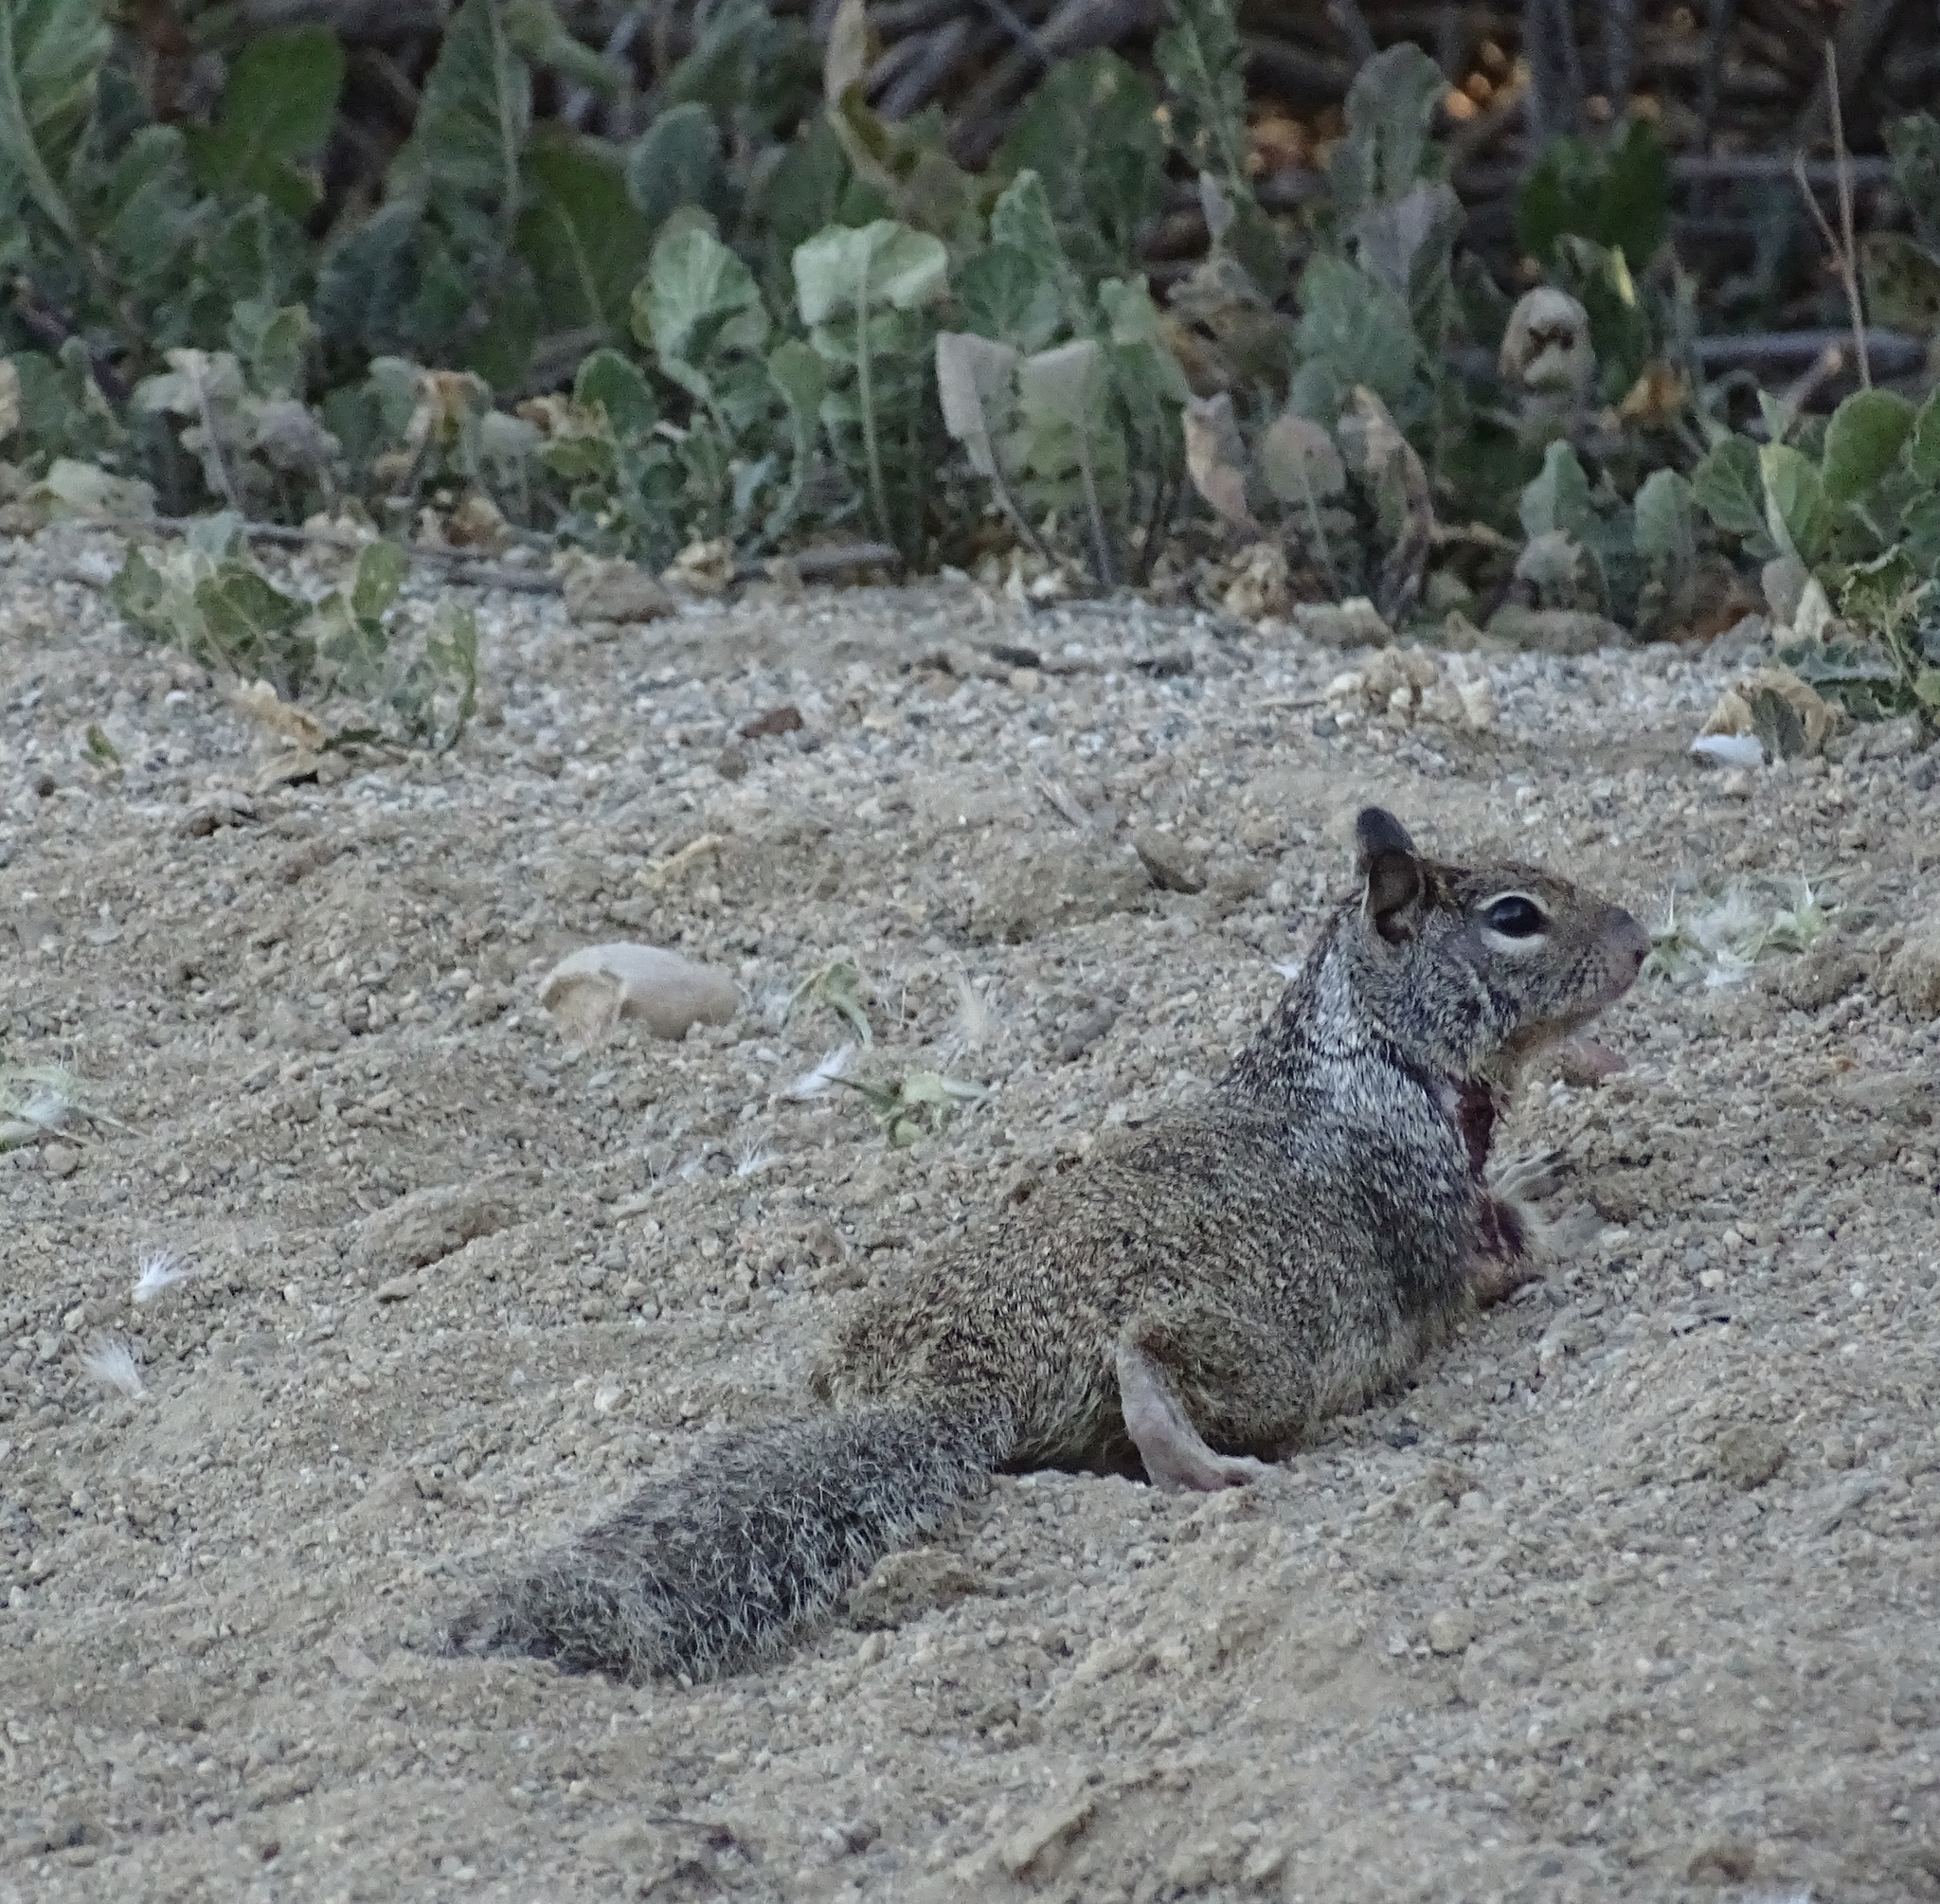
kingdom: Animalia
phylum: Chordata
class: Mammalia
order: Rodentia
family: Sciuridae
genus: Otospermophilus
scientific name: Otospermophilus beecheyi
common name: California ground squirrel
